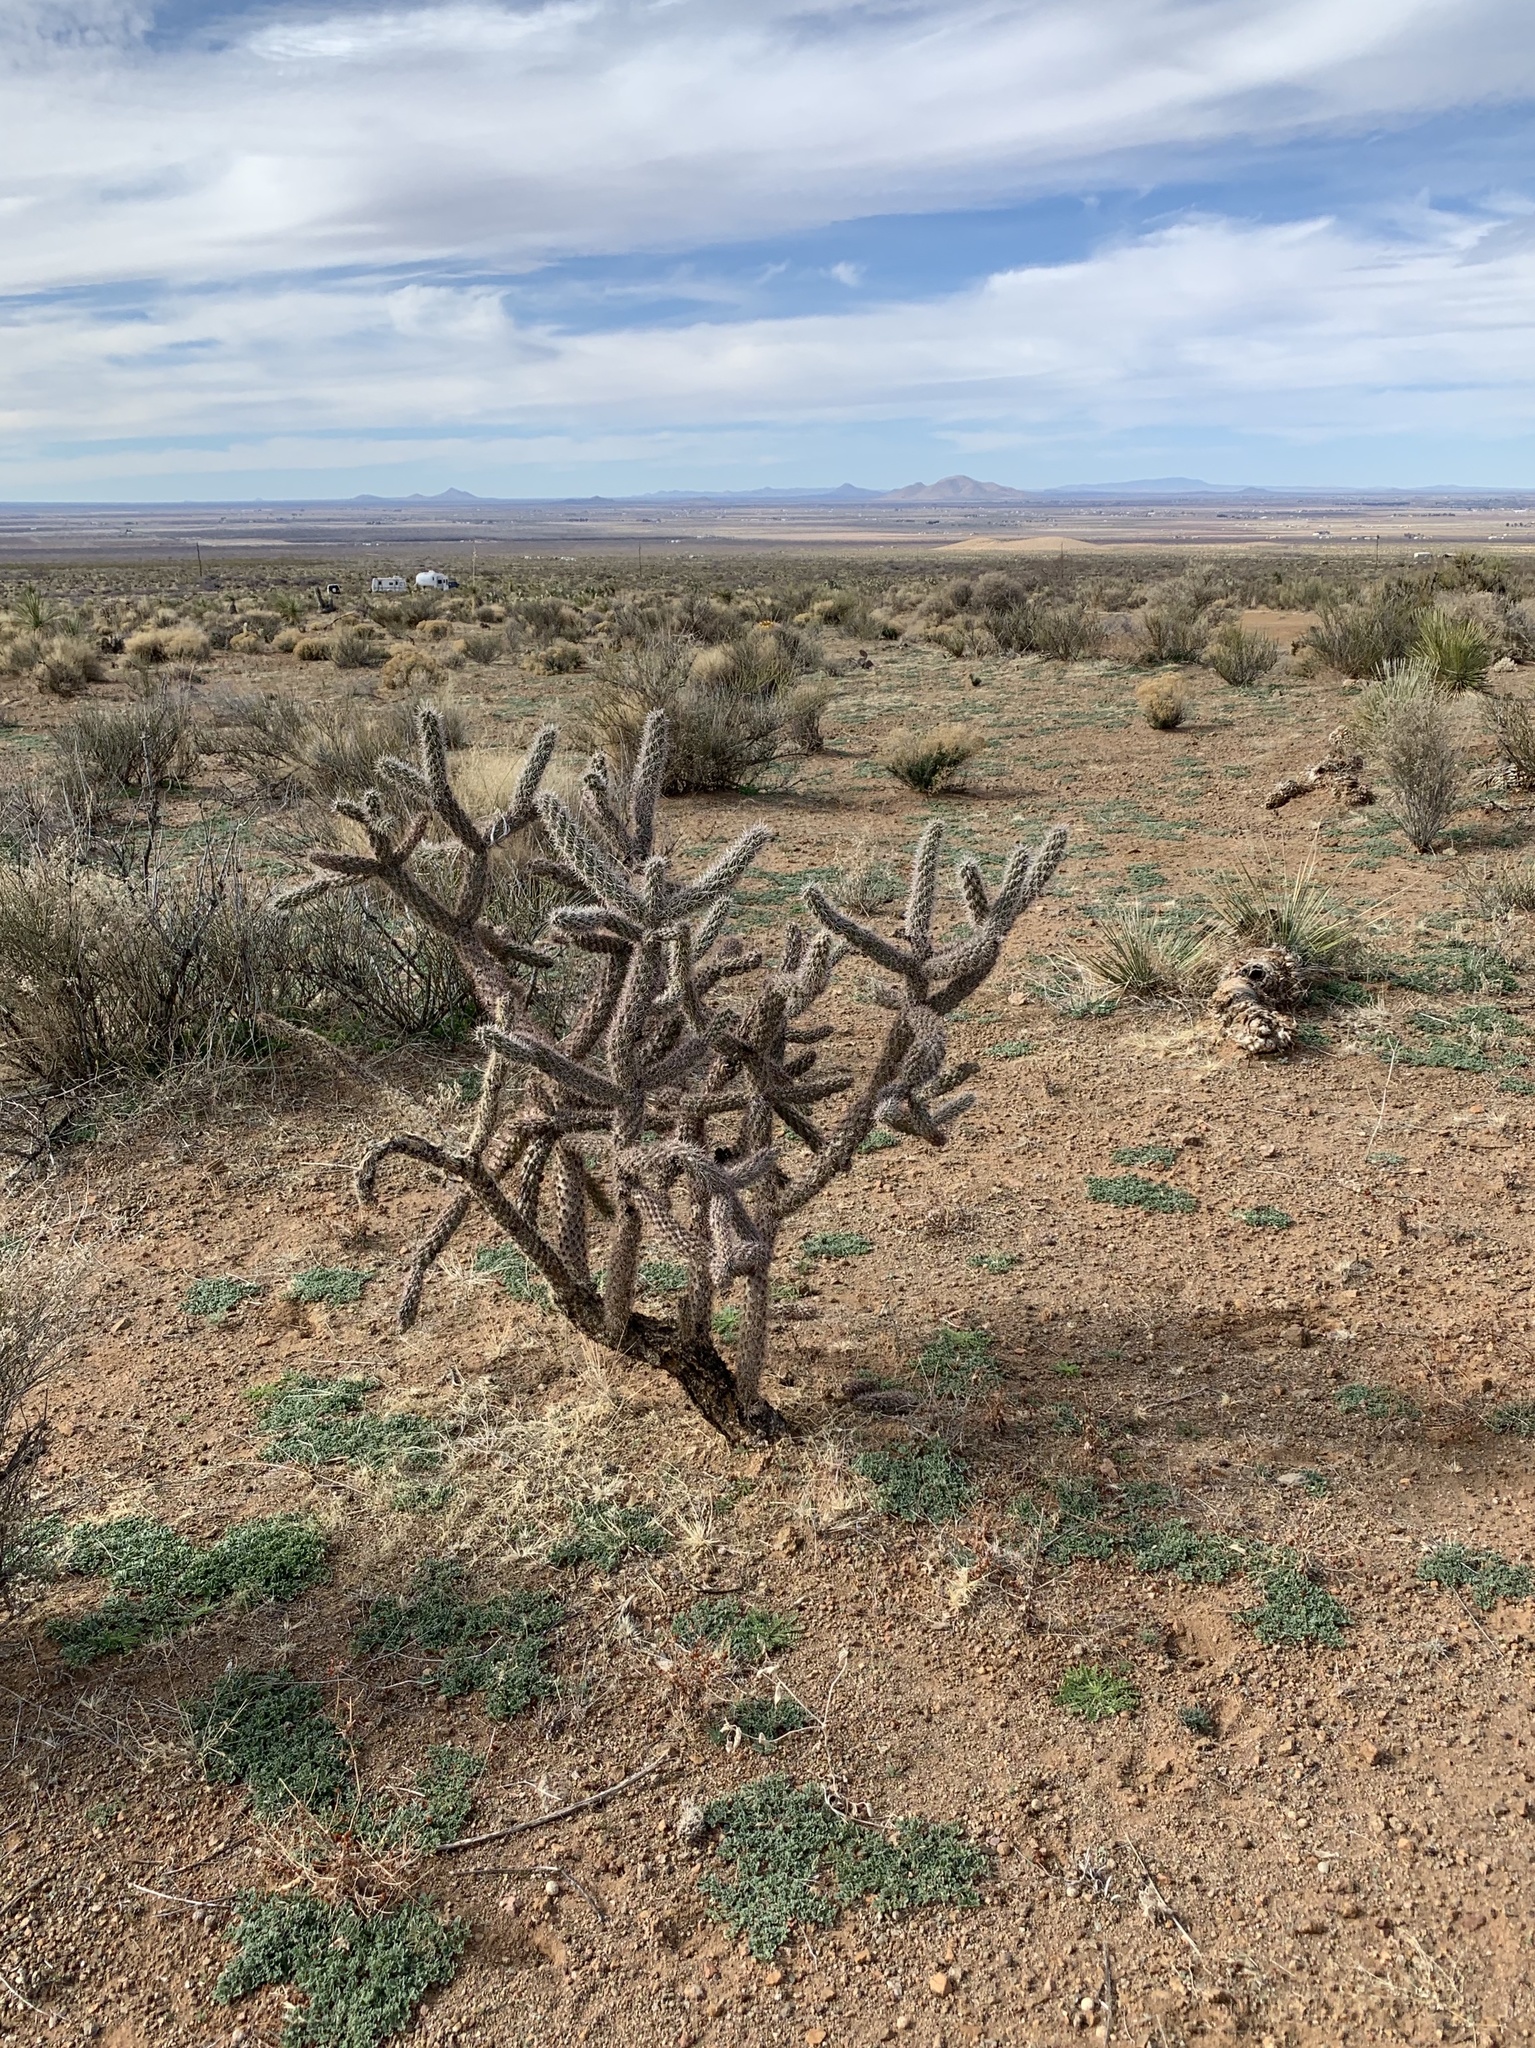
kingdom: Plantae
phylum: Tracheophyta
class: Magnoliopsida
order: Caryophyllales
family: Cactaceae
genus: Cylindropuntia
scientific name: Cylindropuntia imbricata
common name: Candelabrum cactus
